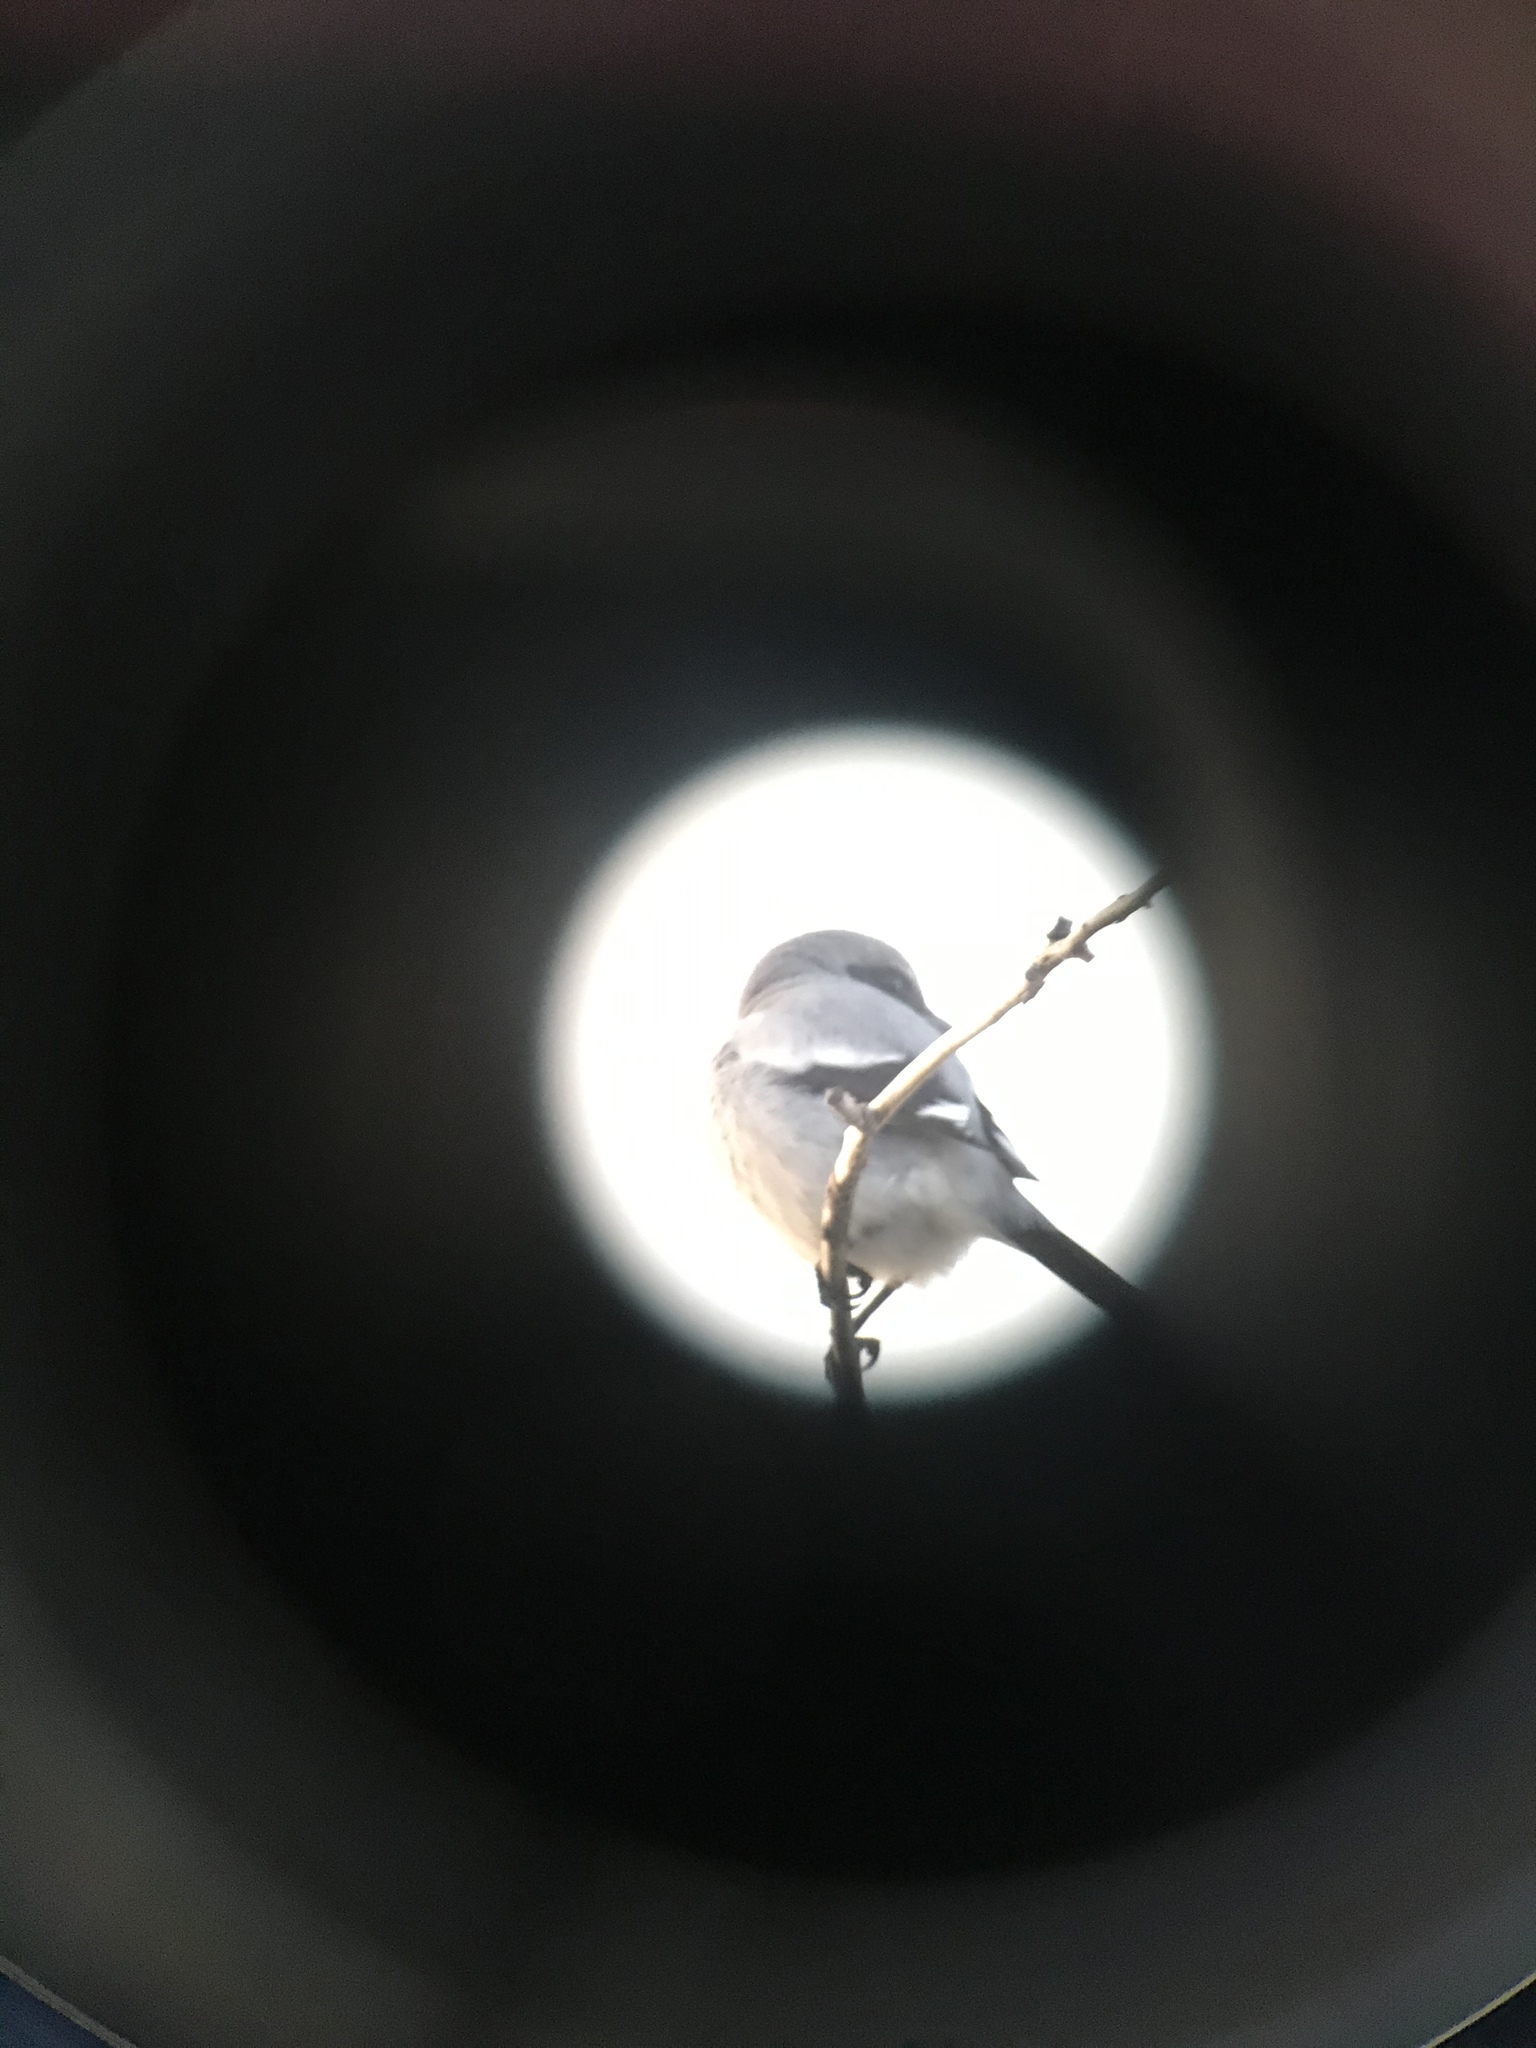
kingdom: Animalia
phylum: Chordata
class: Aves
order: Passeriformes
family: Laniidae
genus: Lanius
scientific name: Lanius ludovicianus
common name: Loggerhead shrike
